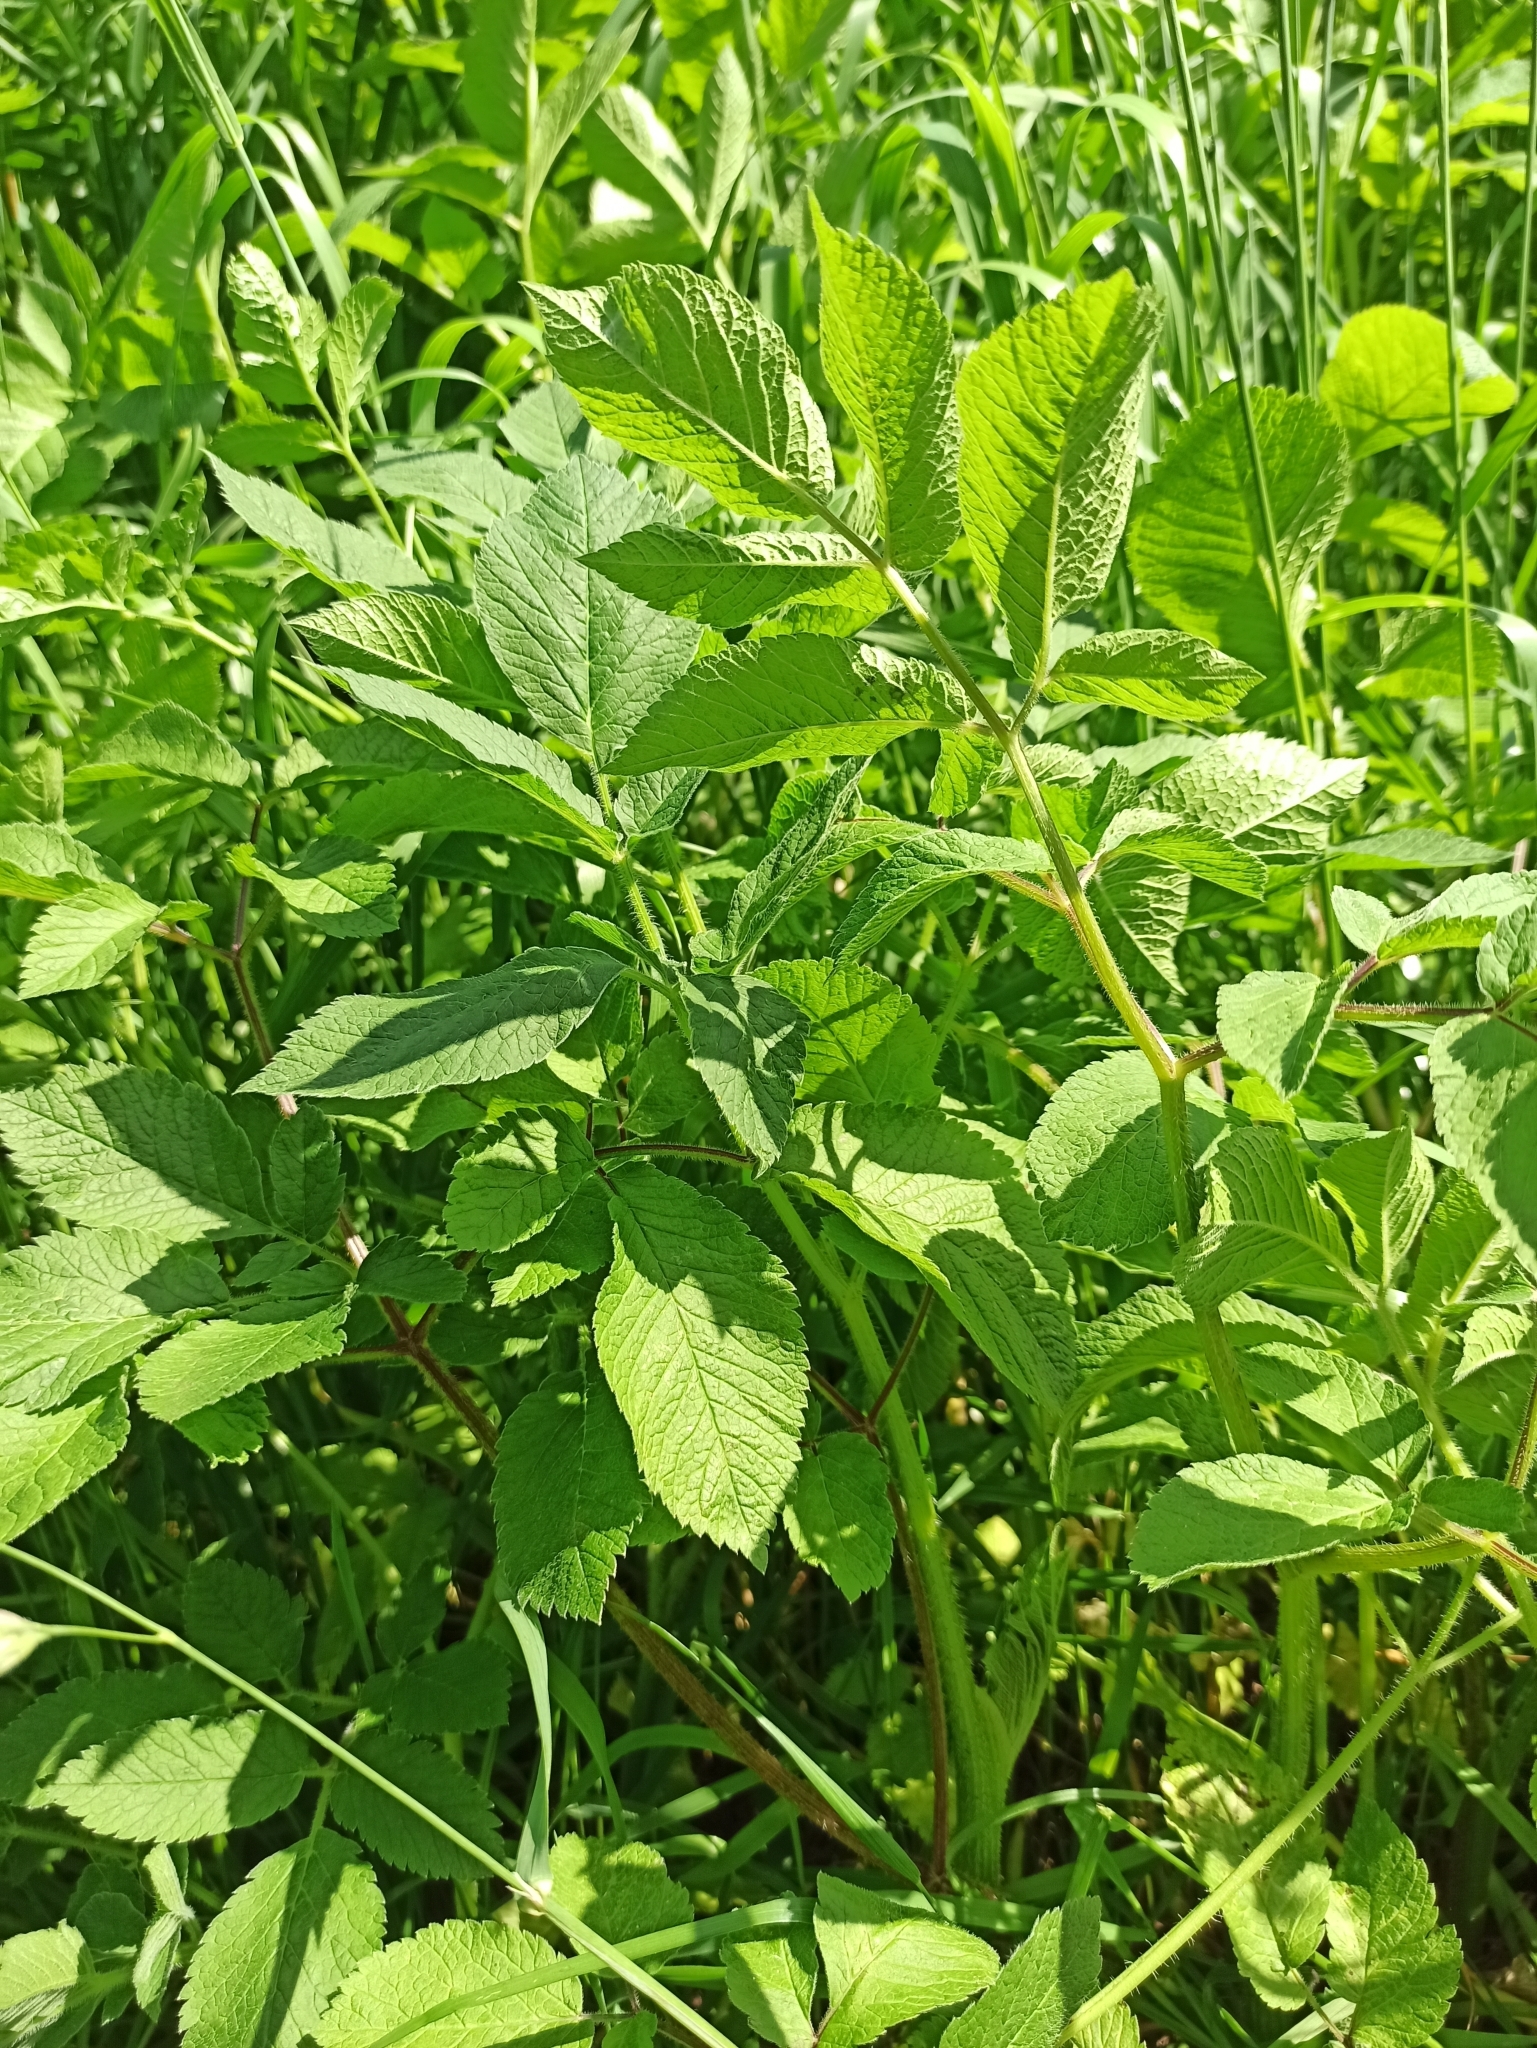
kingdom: Plantae
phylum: Tracheophyta
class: Magnoliopsida
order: Apiales
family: Apiaceae
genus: Chaerophyllum
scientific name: Chaerophyllum aromaticum
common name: Broadleaf chervil
